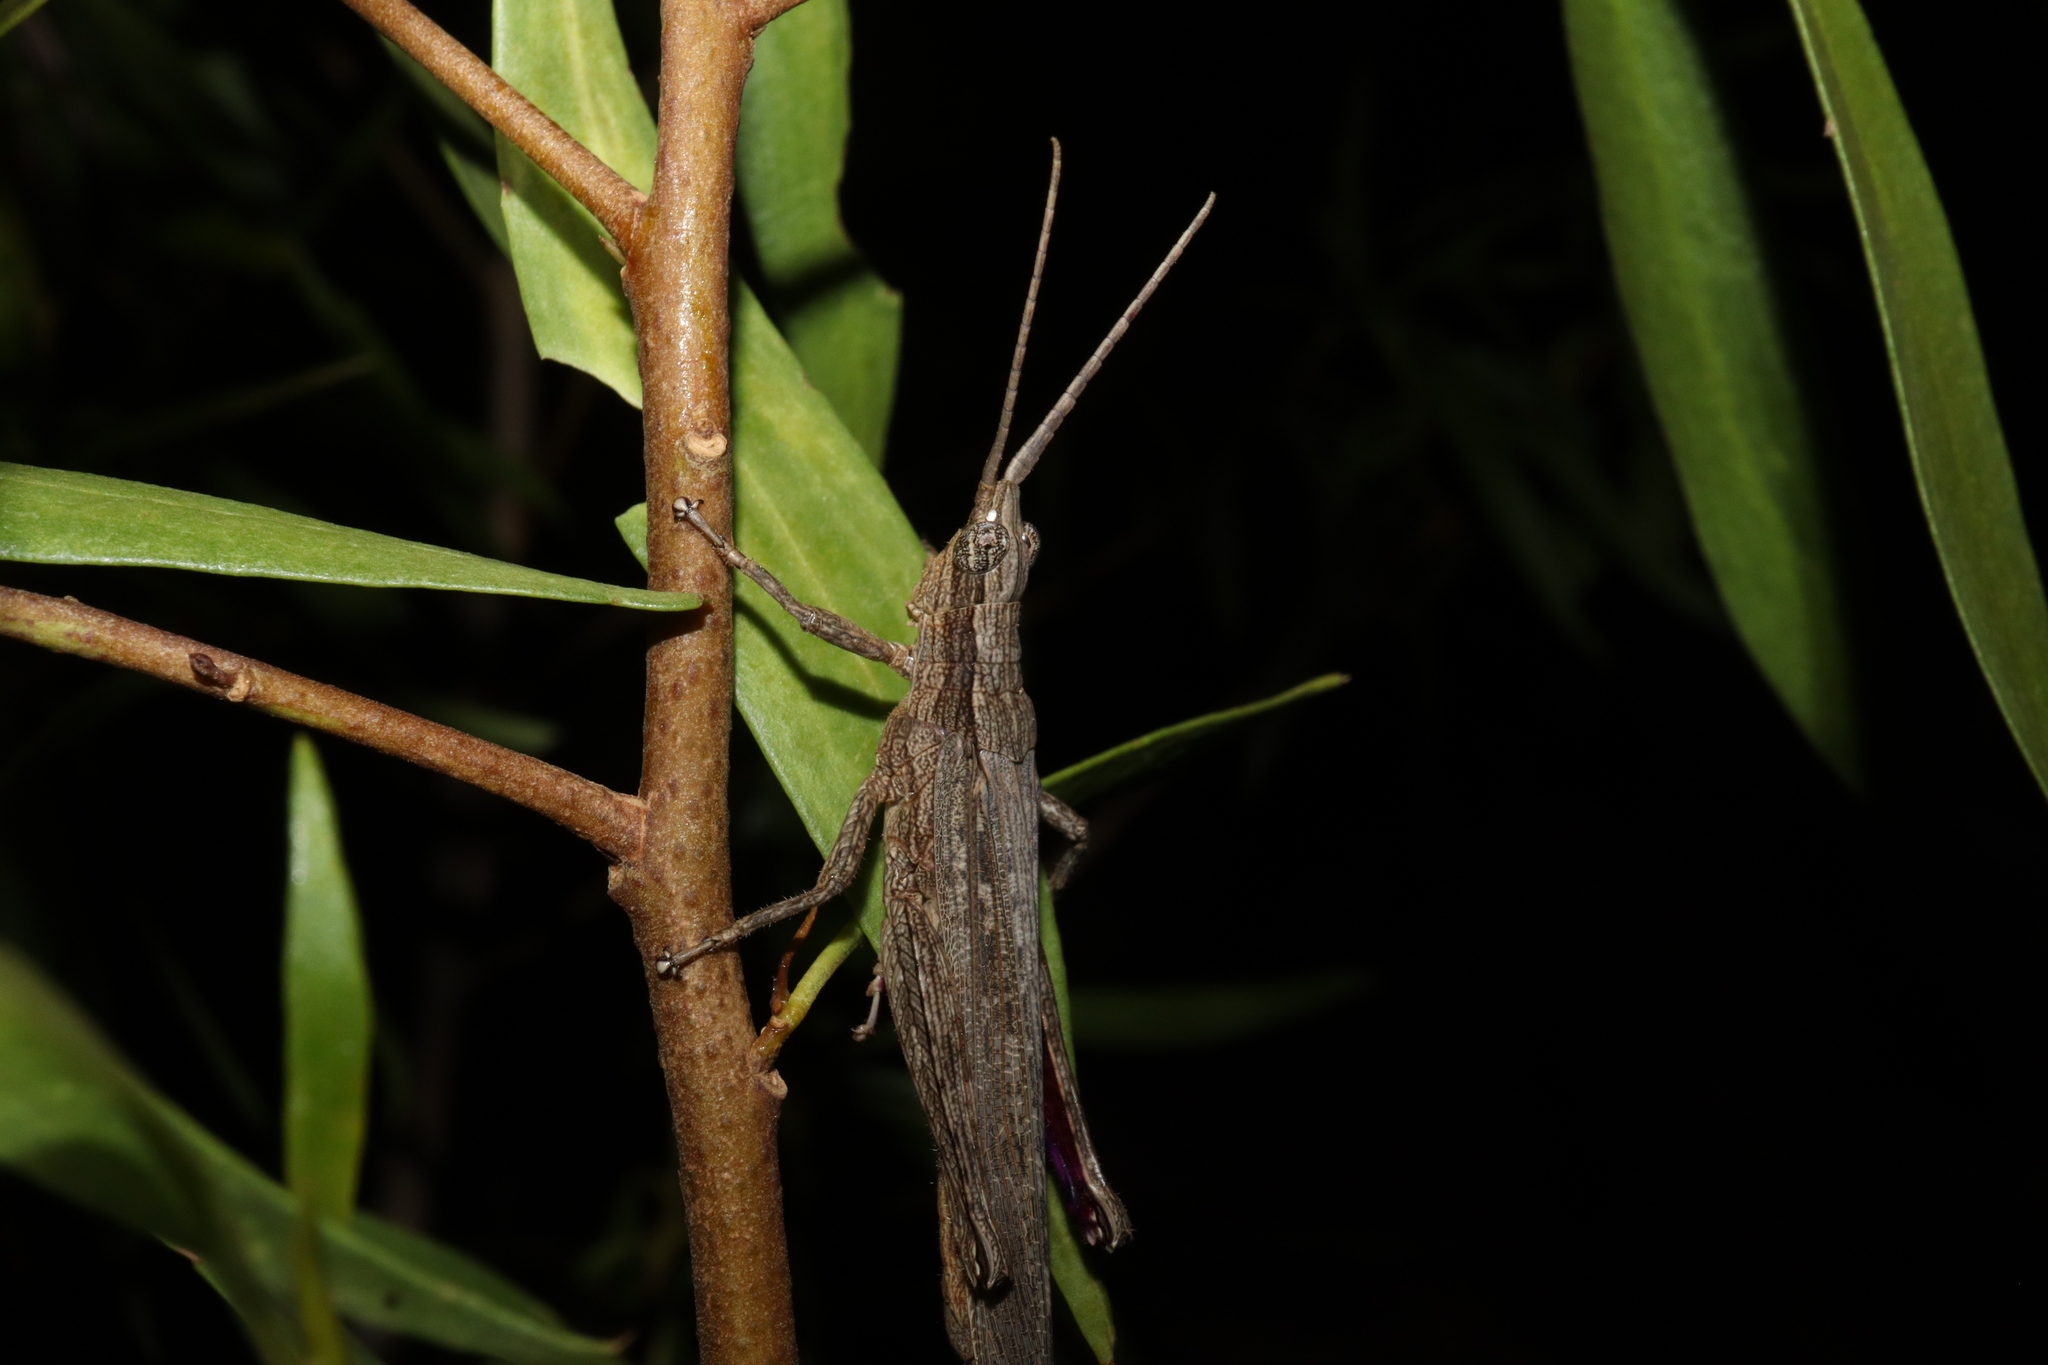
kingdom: Animalia
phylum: Arthropoda
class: Insecta
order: Orthoptera
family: Acrididae
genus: Coryphistes
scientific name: Coryphistes ruricola
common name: Bark-mimicking grasshopper
